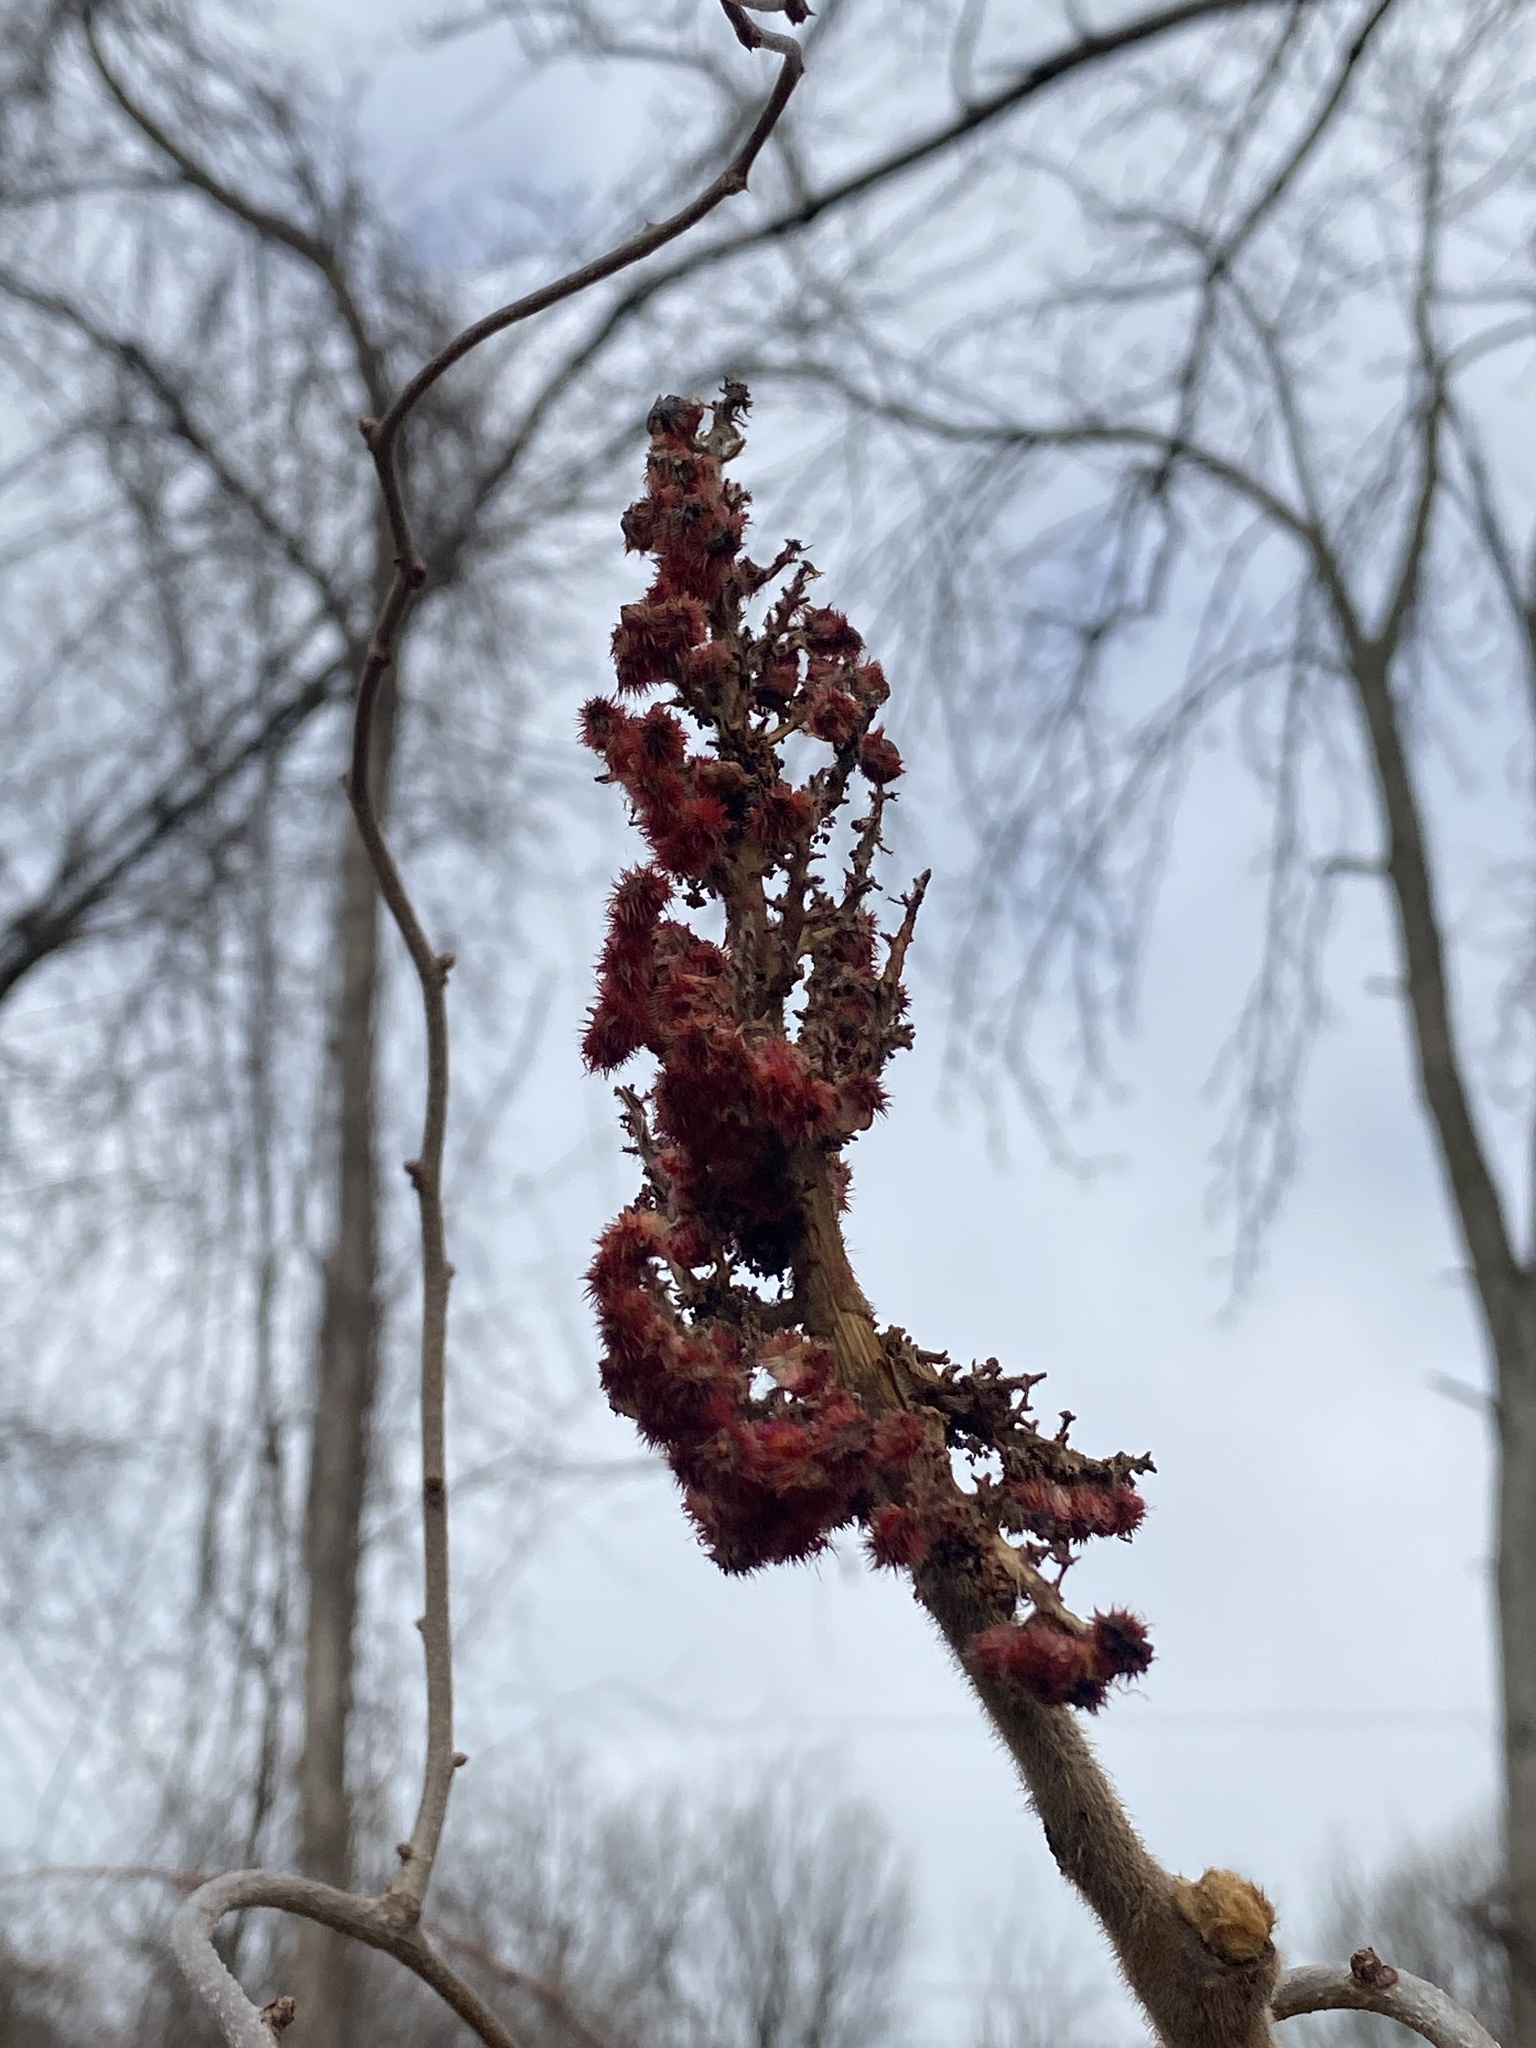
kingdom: Plantae
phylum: Tracheophyta
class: Magnoliopsida
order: Sapindales
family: Anacardiaceae
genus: Rhus
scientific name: Rhus typhina
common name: Staghorn sumac
